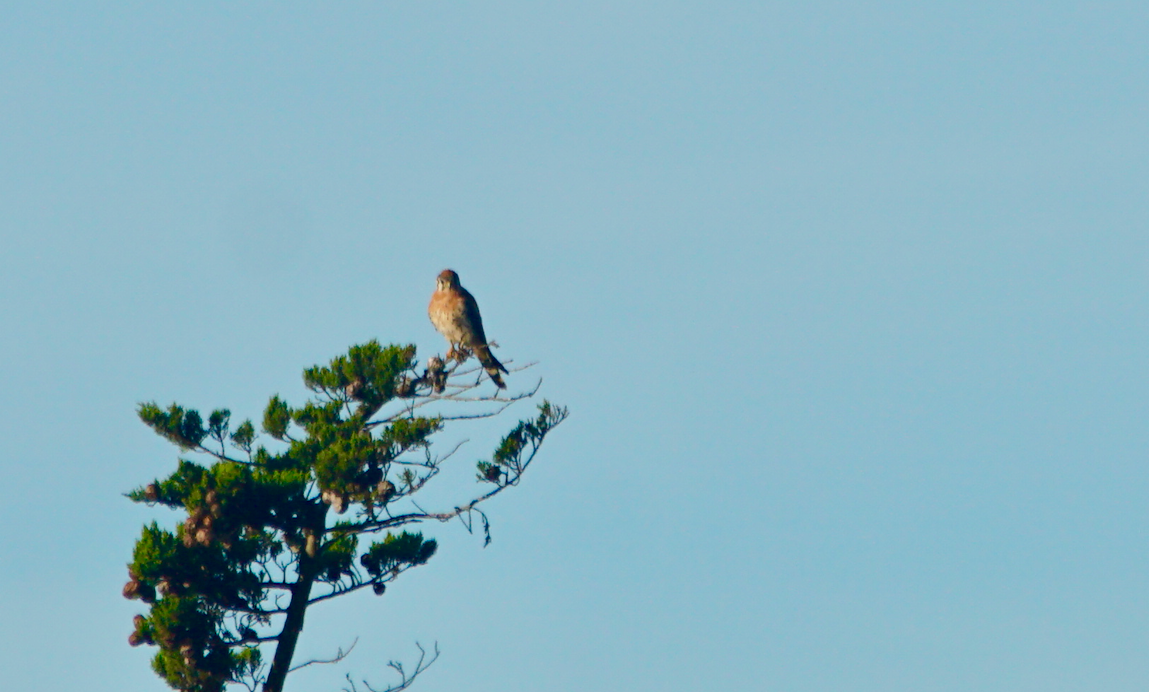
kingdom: Animalia
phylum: Chordata
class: Aves
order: Falconiformes
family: Falconidae
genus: Falco
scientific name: Falco sparverius
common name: American kestrel
